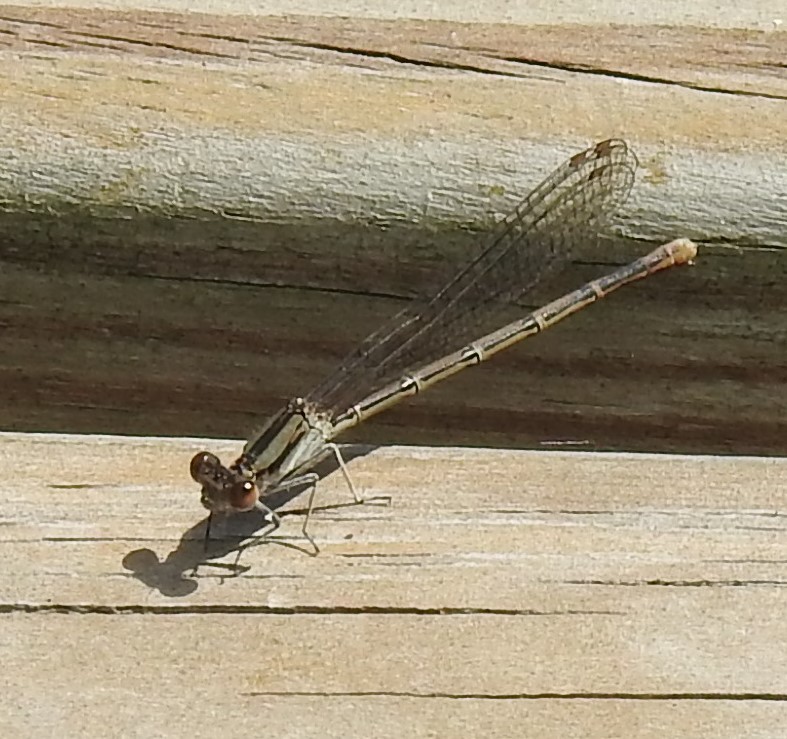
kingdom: Animalia
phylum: Arthropoda
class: Insecta
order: Odonata
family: Coenagrionidae
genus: Argia
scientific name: Argia fumipennis
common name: Variable dancer
